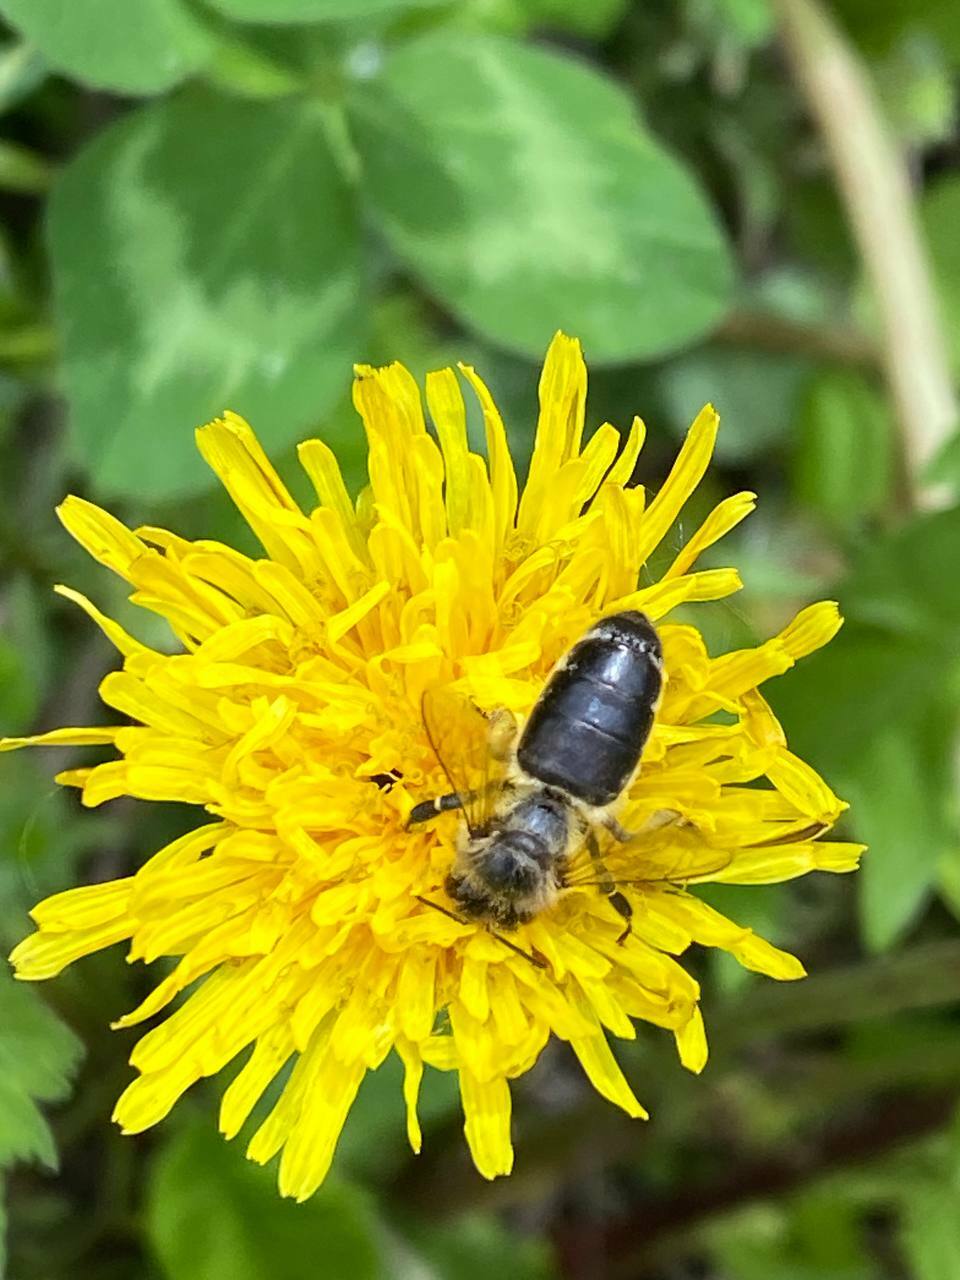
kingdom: Animalia
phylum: Arthropoda
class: Insecta
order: Hymenoptera
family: Apidae
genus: Apis
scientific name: Apis mellifera
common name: Honey bee
